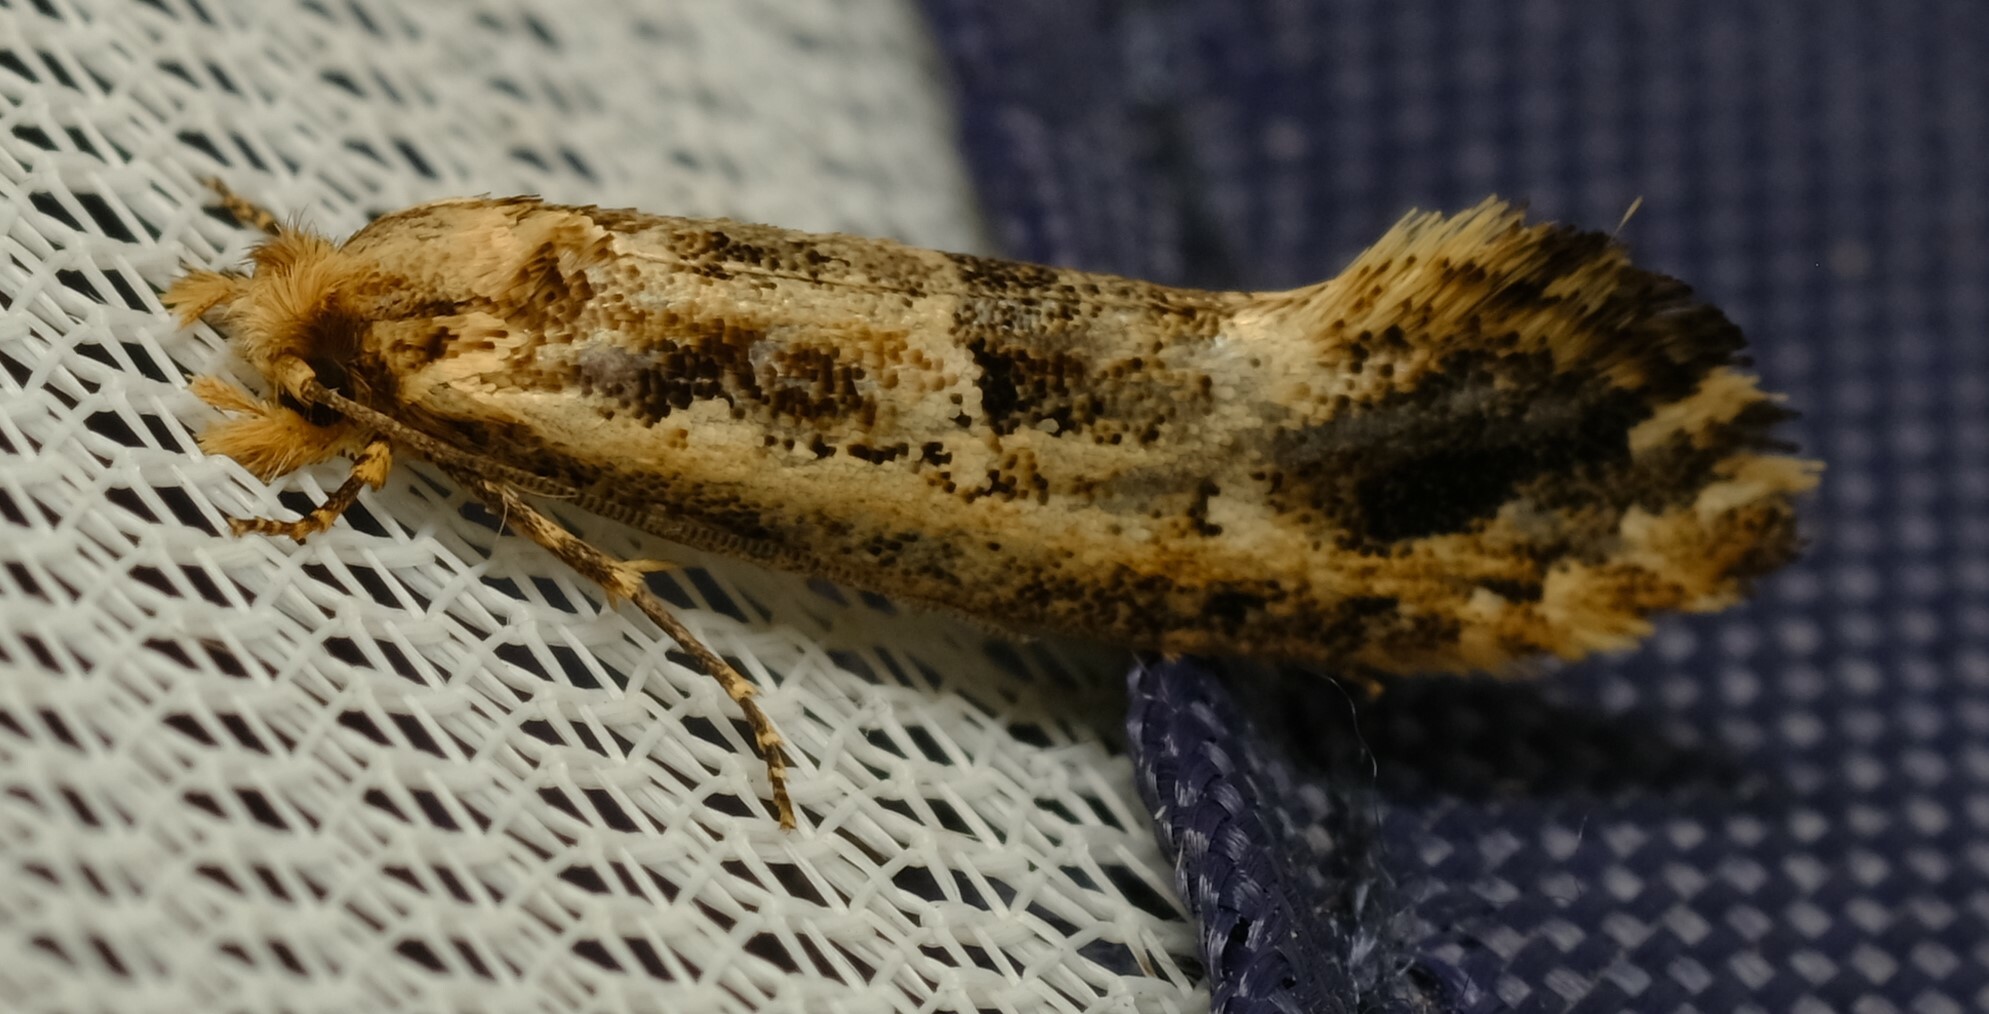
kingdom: Animalia
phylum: Arthropoda
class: Insecta
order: Lepidoptera
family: Tineidae
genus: Moerarchis
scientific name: Moerarchis inconcisella
